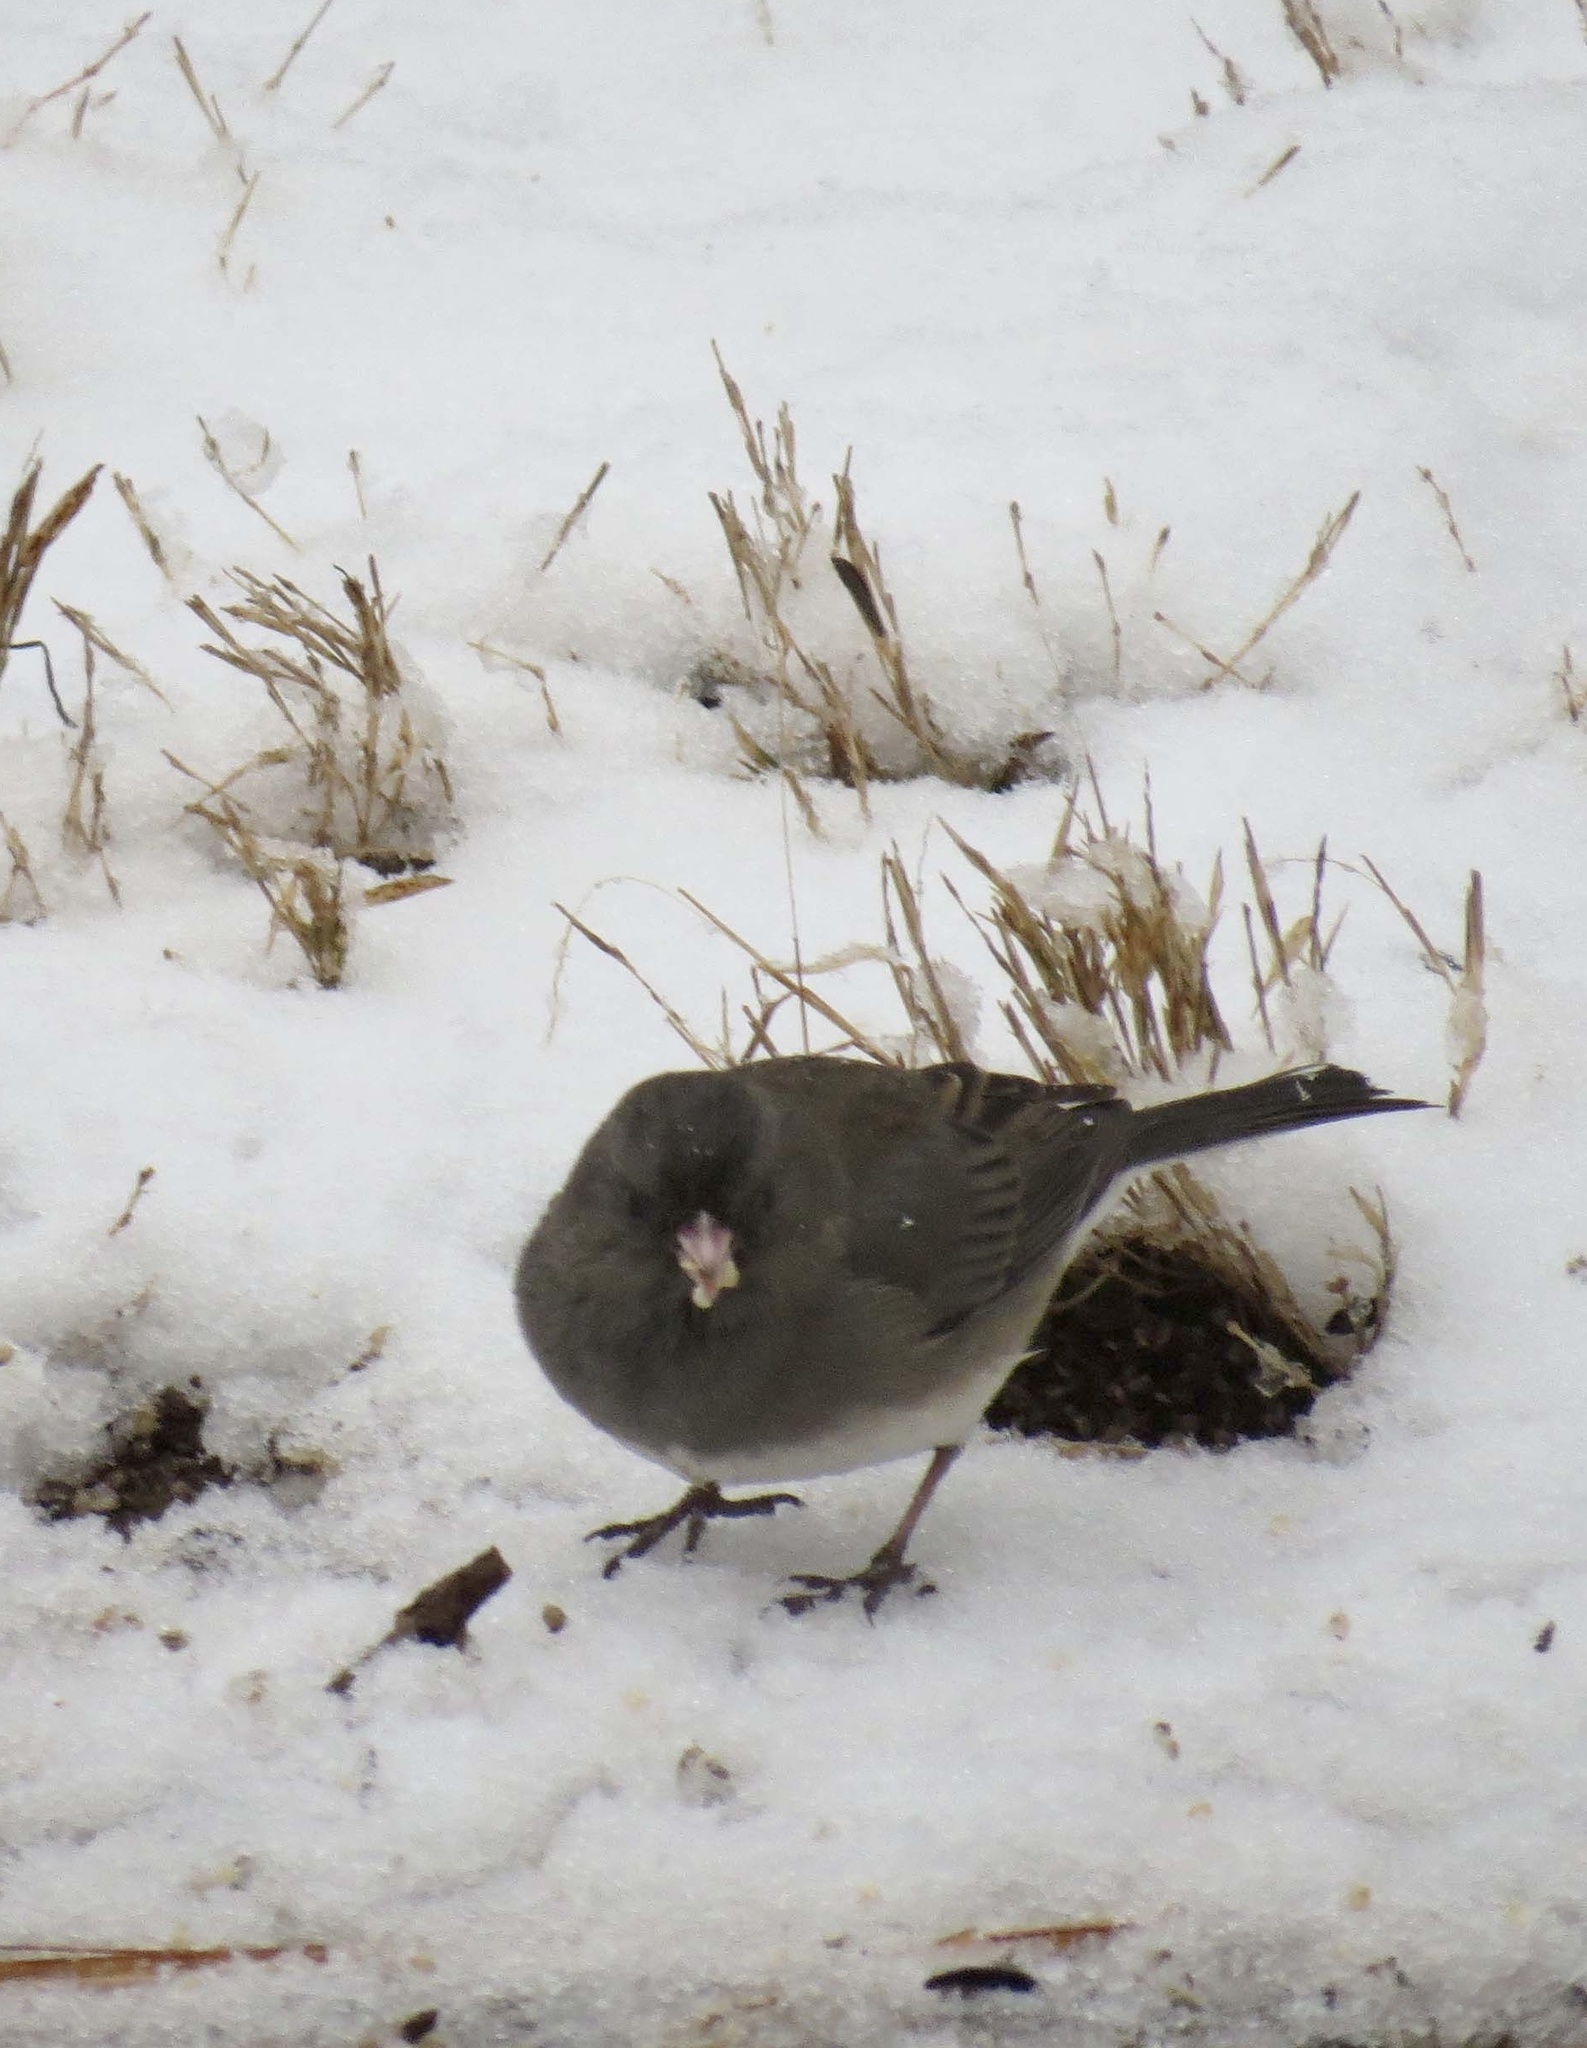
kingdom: Animalia
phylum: Chordata
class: Aves
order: Passeriformes
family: Passerellidae
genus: Junco
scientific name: Junco hyemalis
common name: Dark-eyed junco
